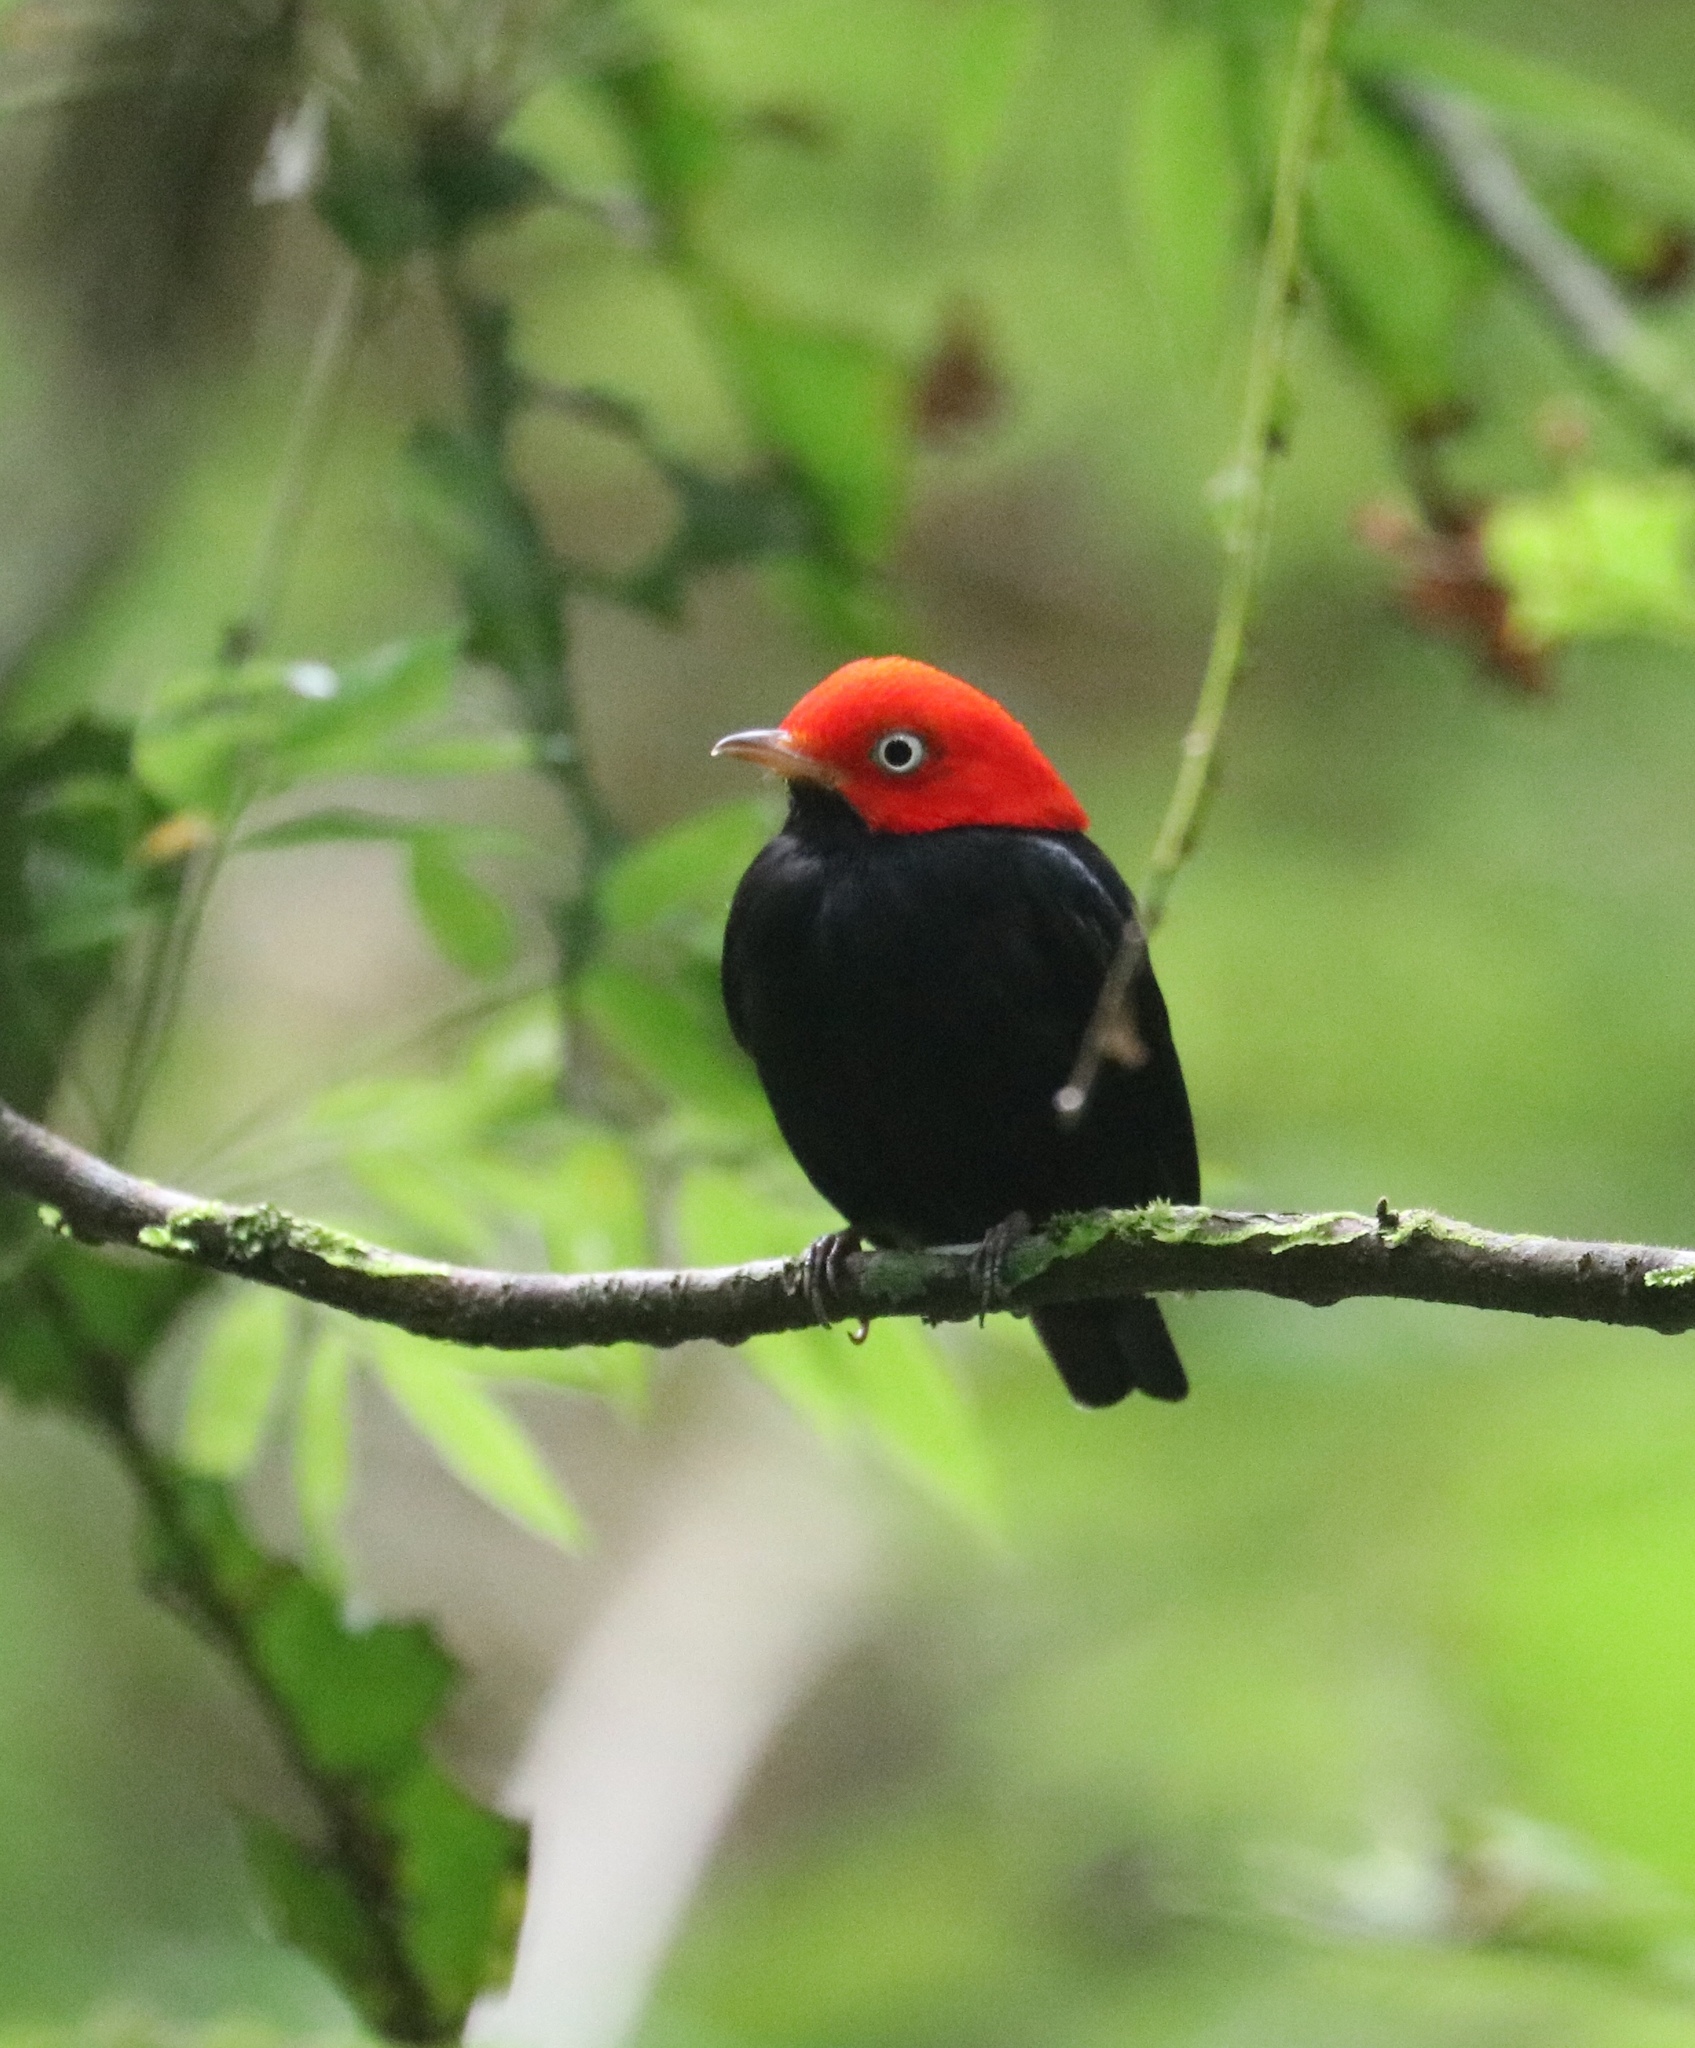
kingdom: Animalia
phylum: Chordata
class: Aves
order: Passeriformes
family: Pipridae
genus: Pipra
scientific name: Pipra mentalis
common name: Red-capped manakin
